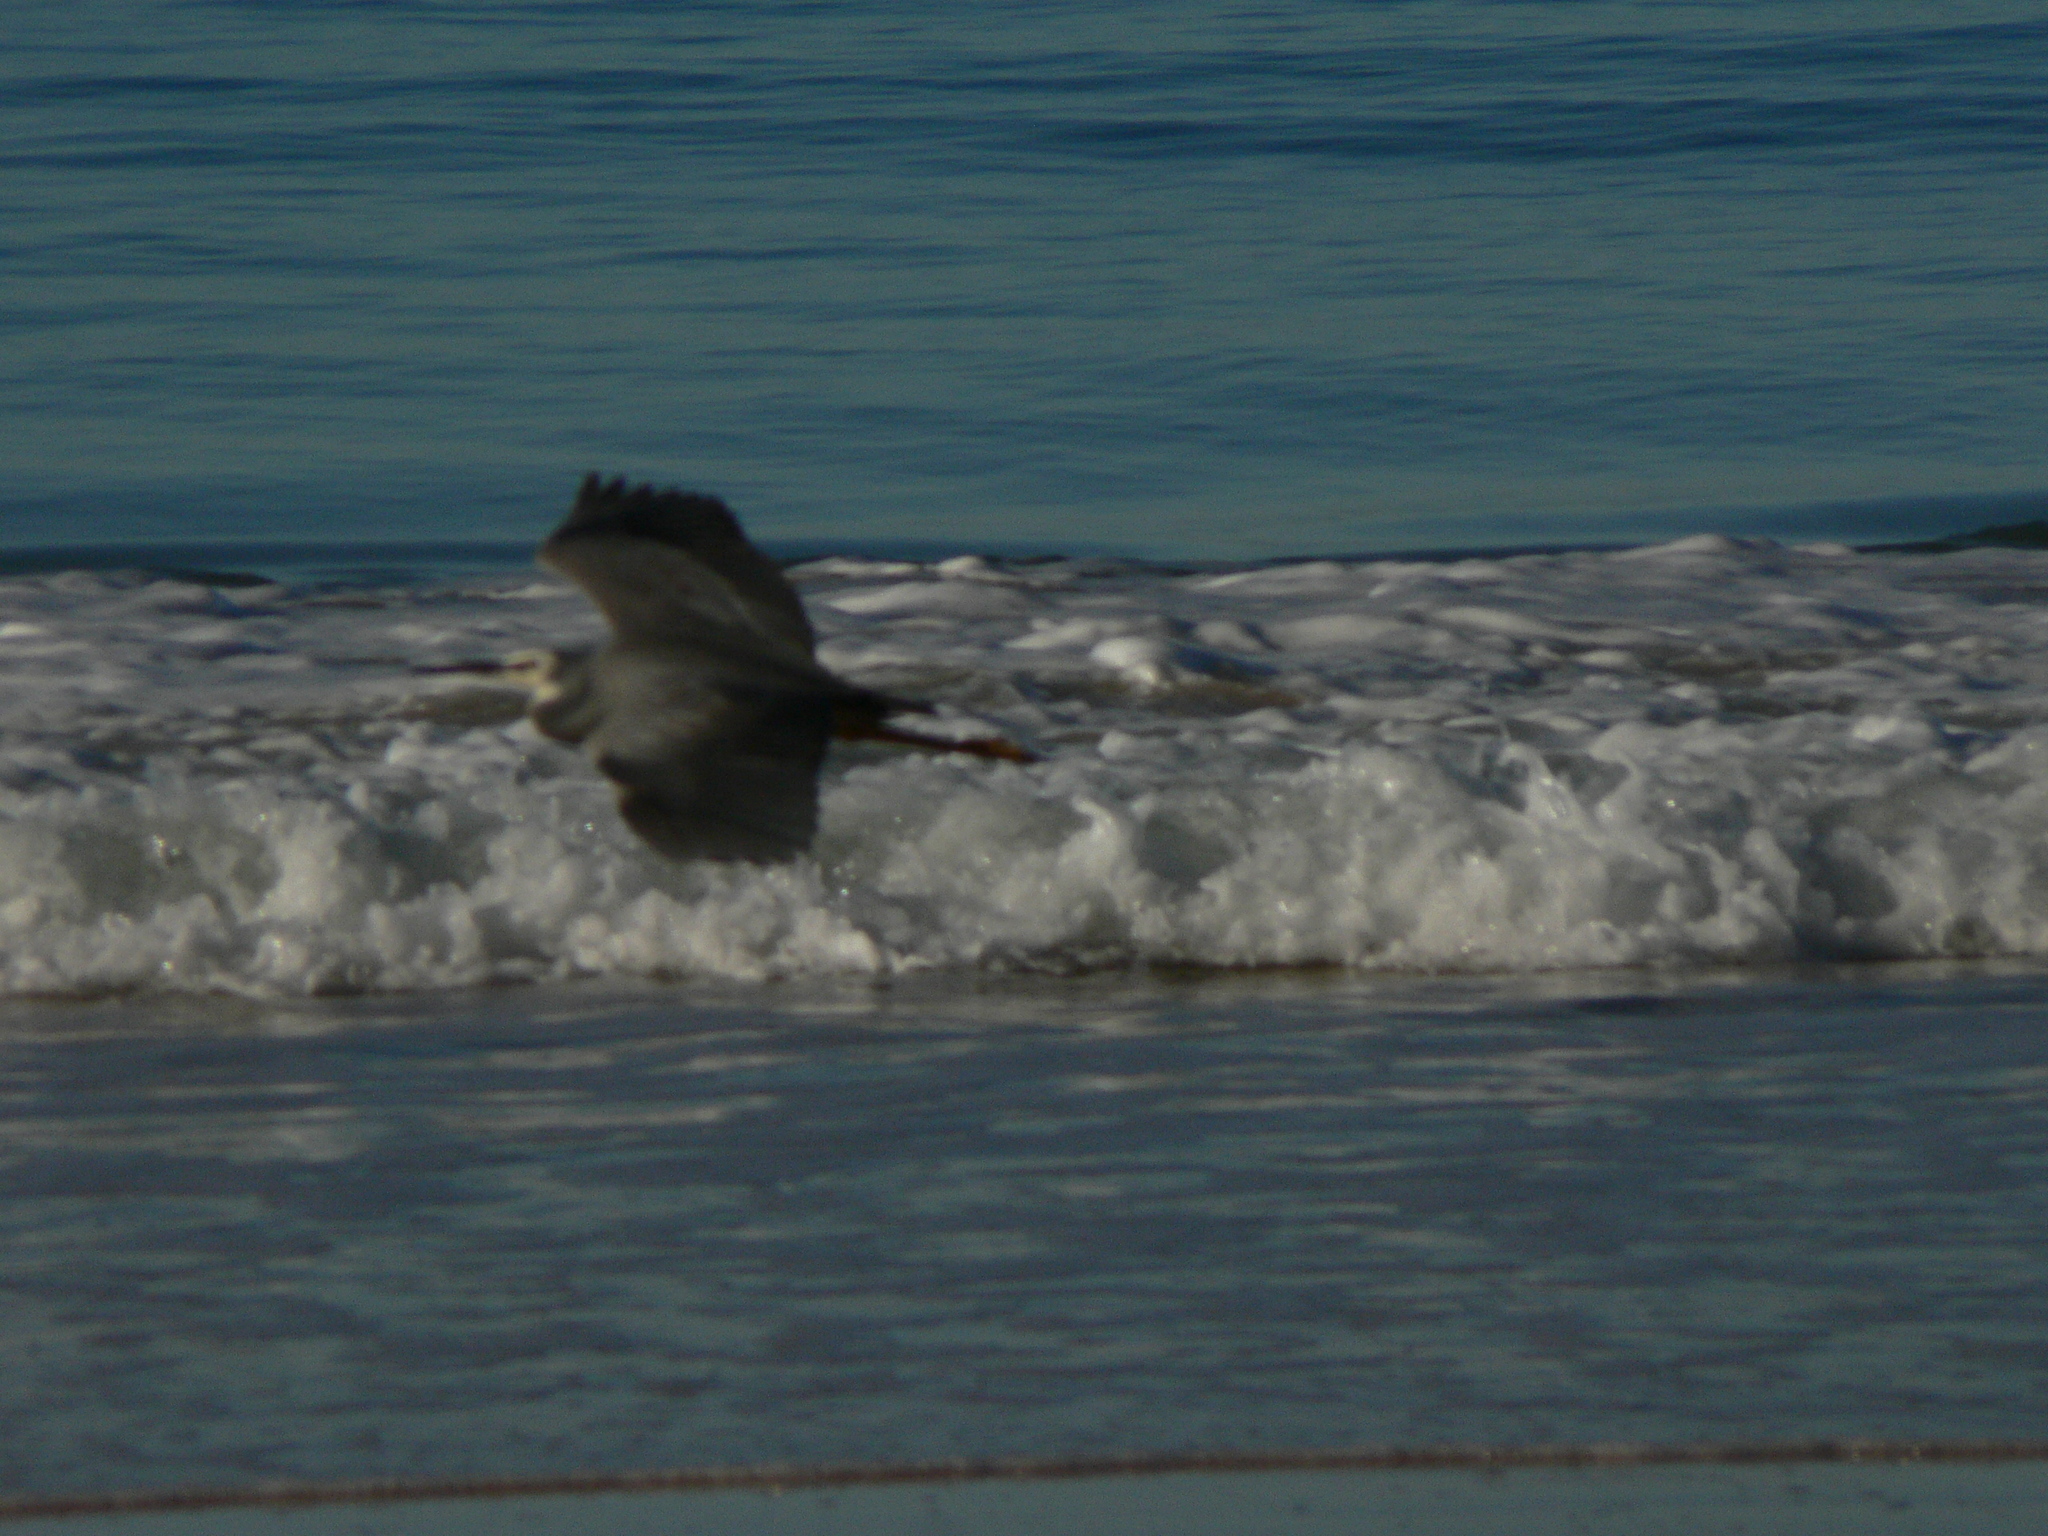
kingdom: Animalia
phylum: Chordata
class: Aves
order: Pelecaniformes
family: Ardeidae
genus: Egretta
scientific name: Egretta novaehollandiae
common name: White-faced heron
